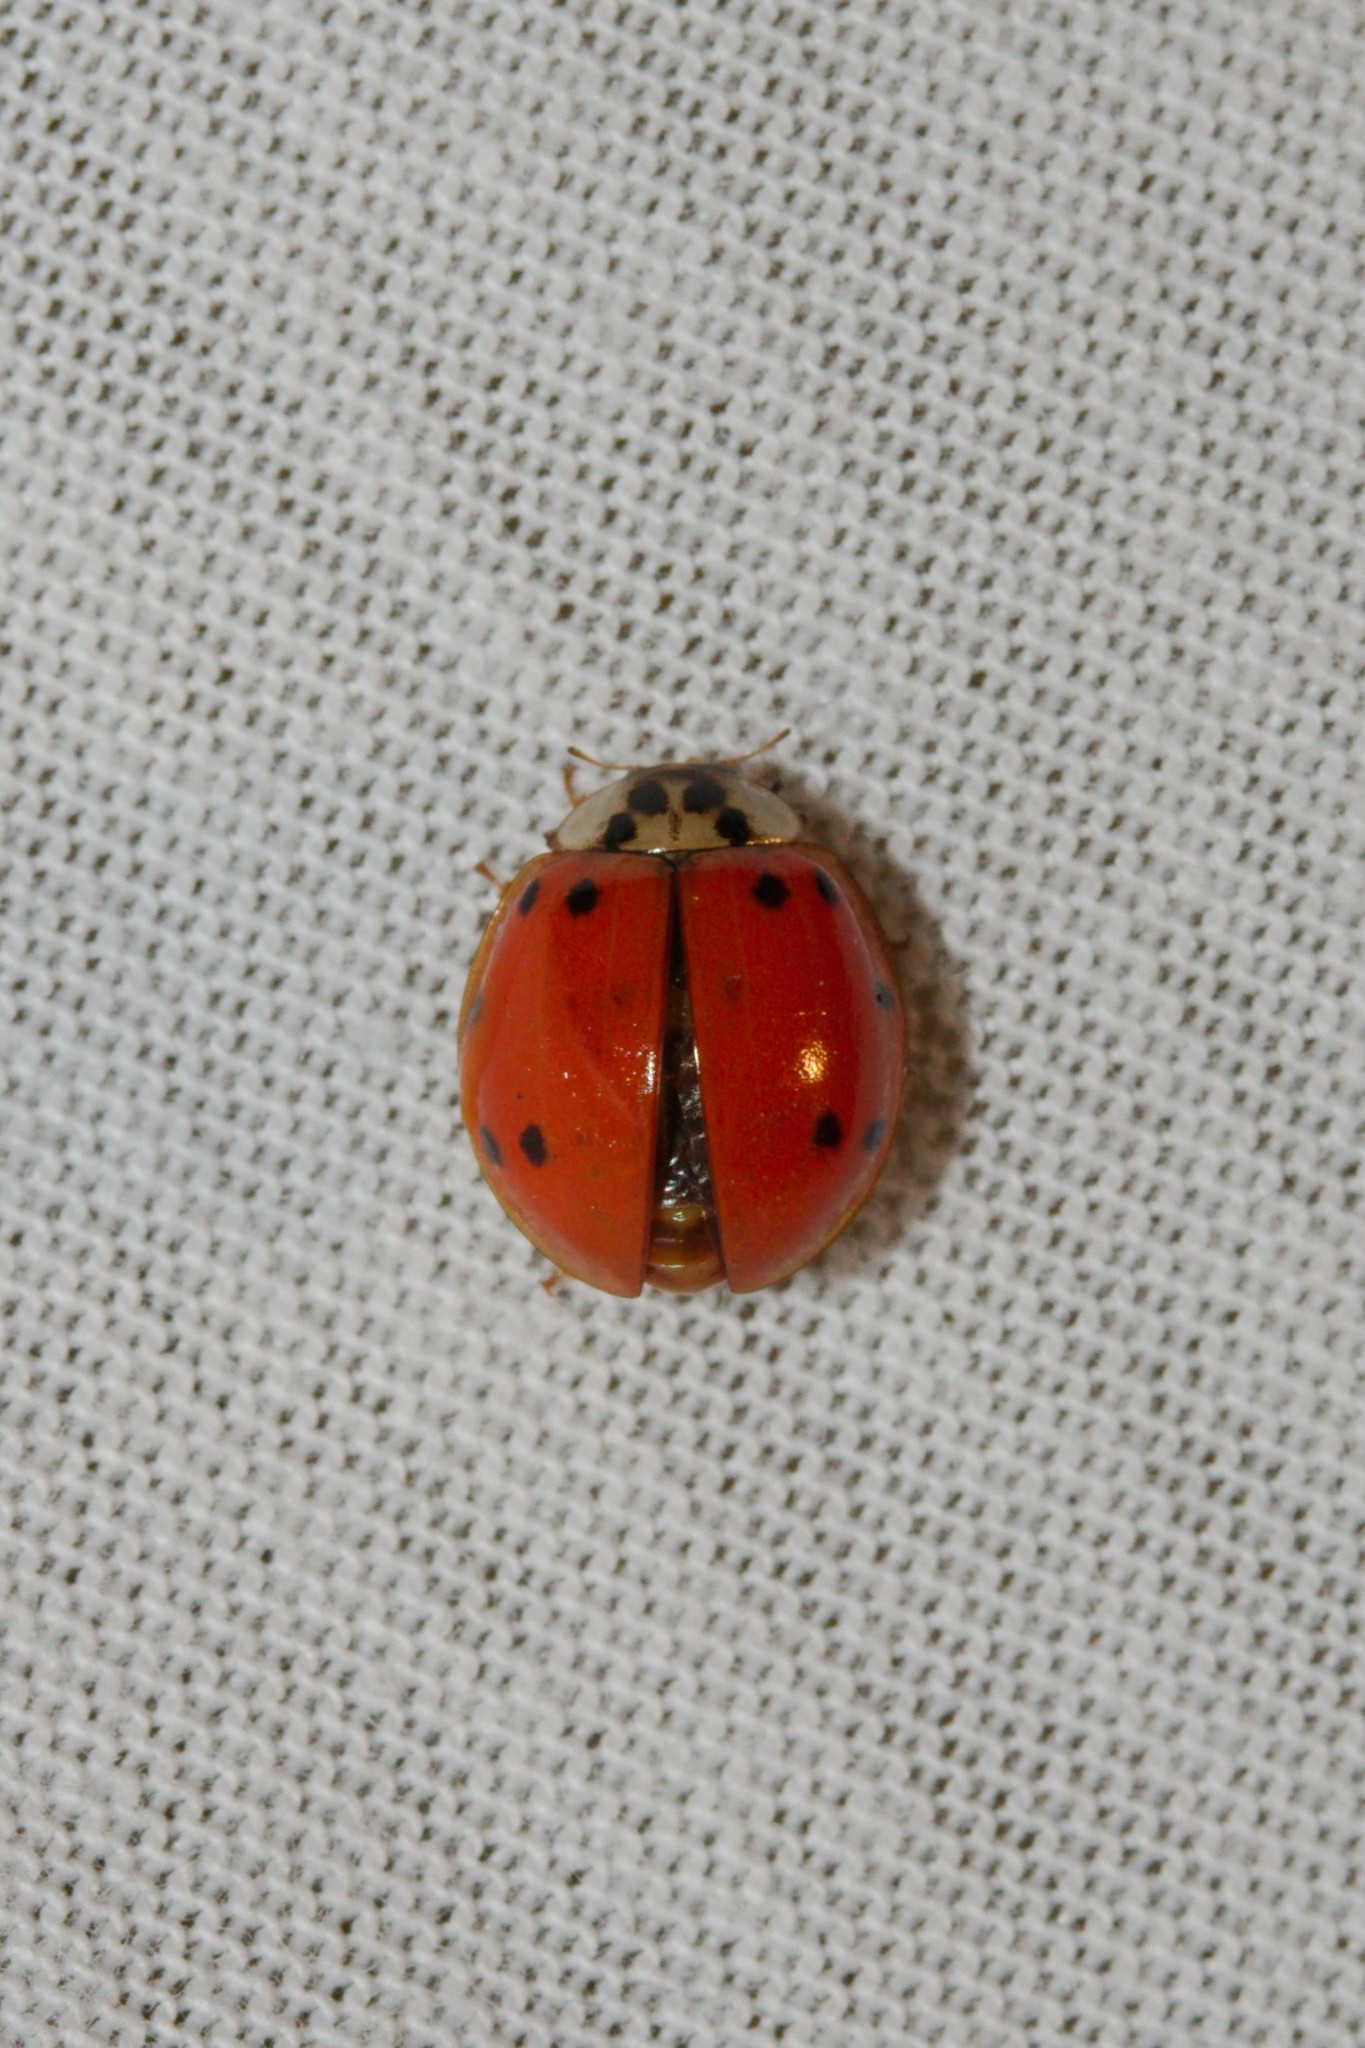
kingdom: Animalia
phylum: Arthropoda
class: Insecta
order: Coleoptera
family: Coccinellidae
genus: Harmonia
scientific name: Harmonia axyridis
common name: Harlequin ladybird
